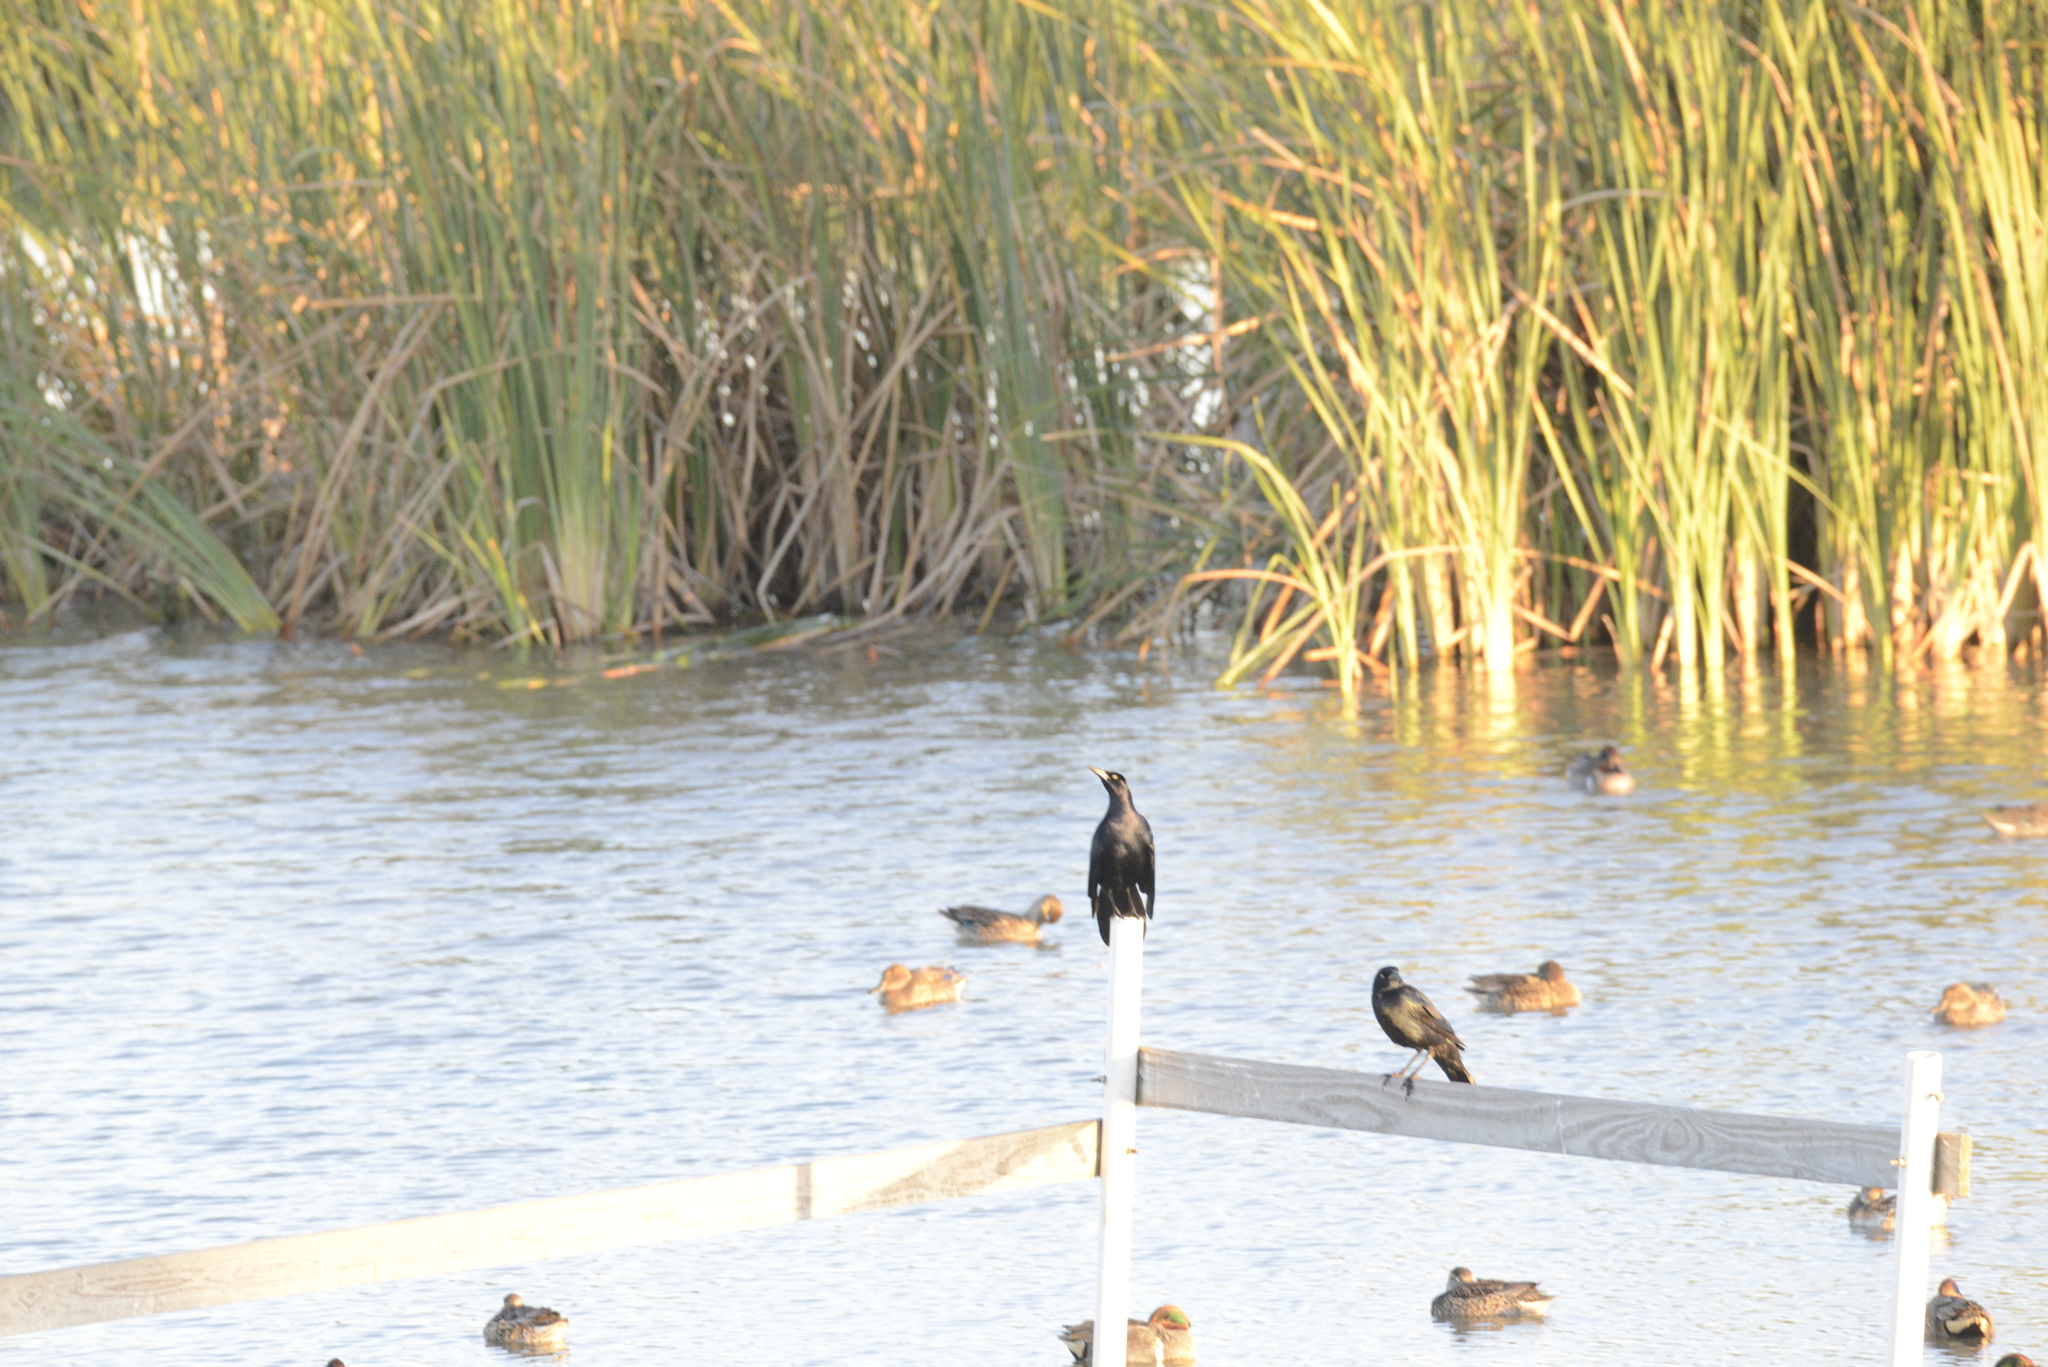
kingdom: Animalia
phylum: Chordata
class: Aves
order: Passeriformes
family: Icteridae
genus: Quiscalus
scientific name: Quiscalus mexicanus
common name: Great-tailed grackle
